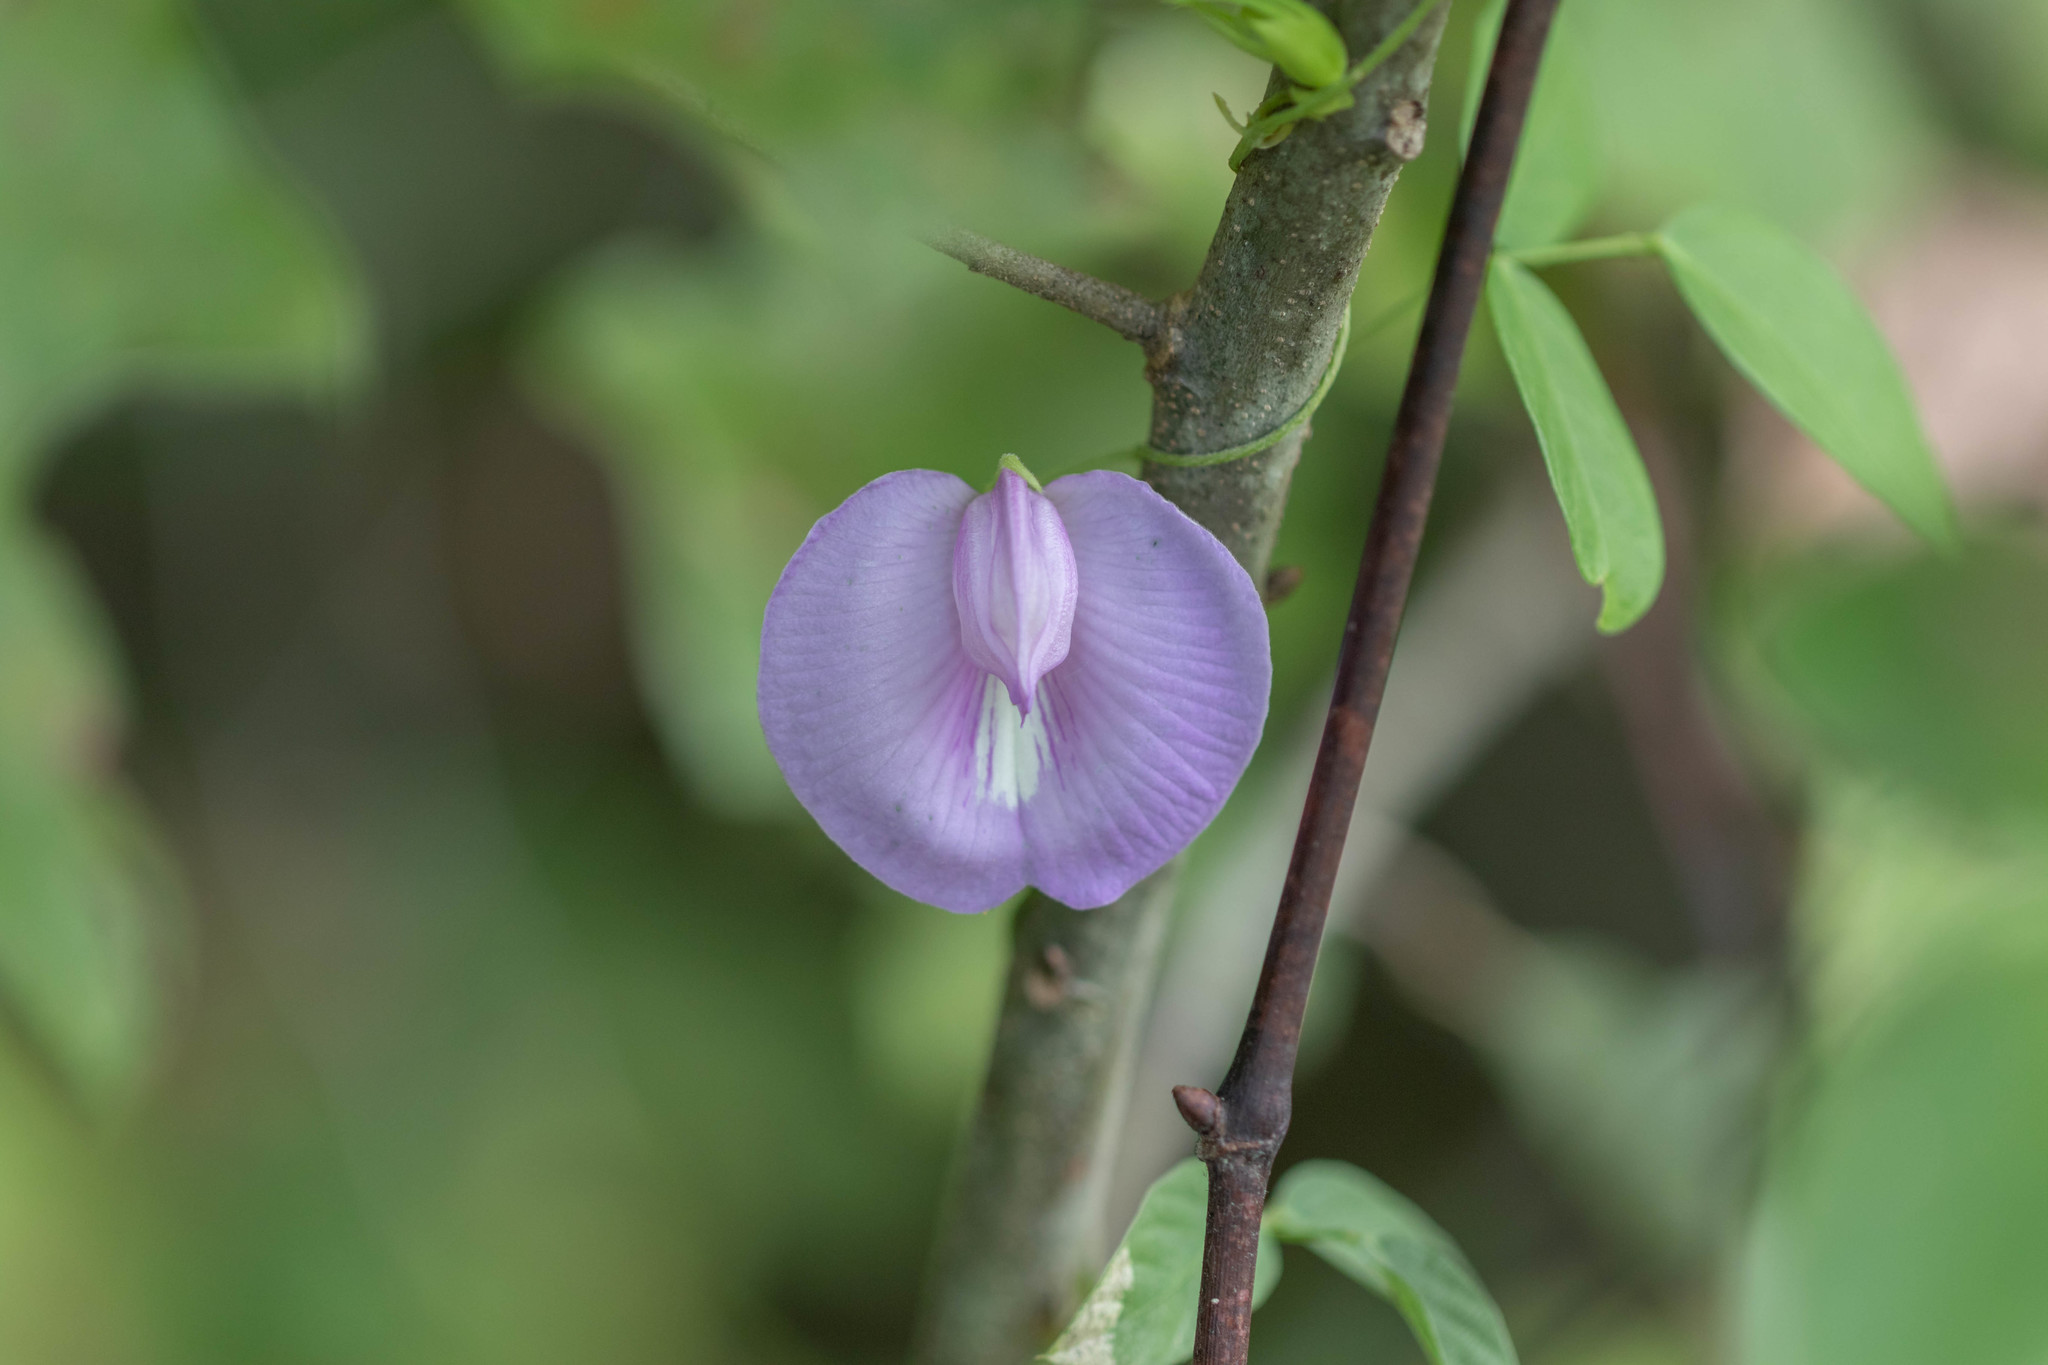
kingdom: Plantae
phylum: Tracheophyta
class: Magnoliopsida
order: Fabales
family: Fabaceae
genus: Centrosema
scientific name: Centrosema virginianum
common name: Butterfly-pea
